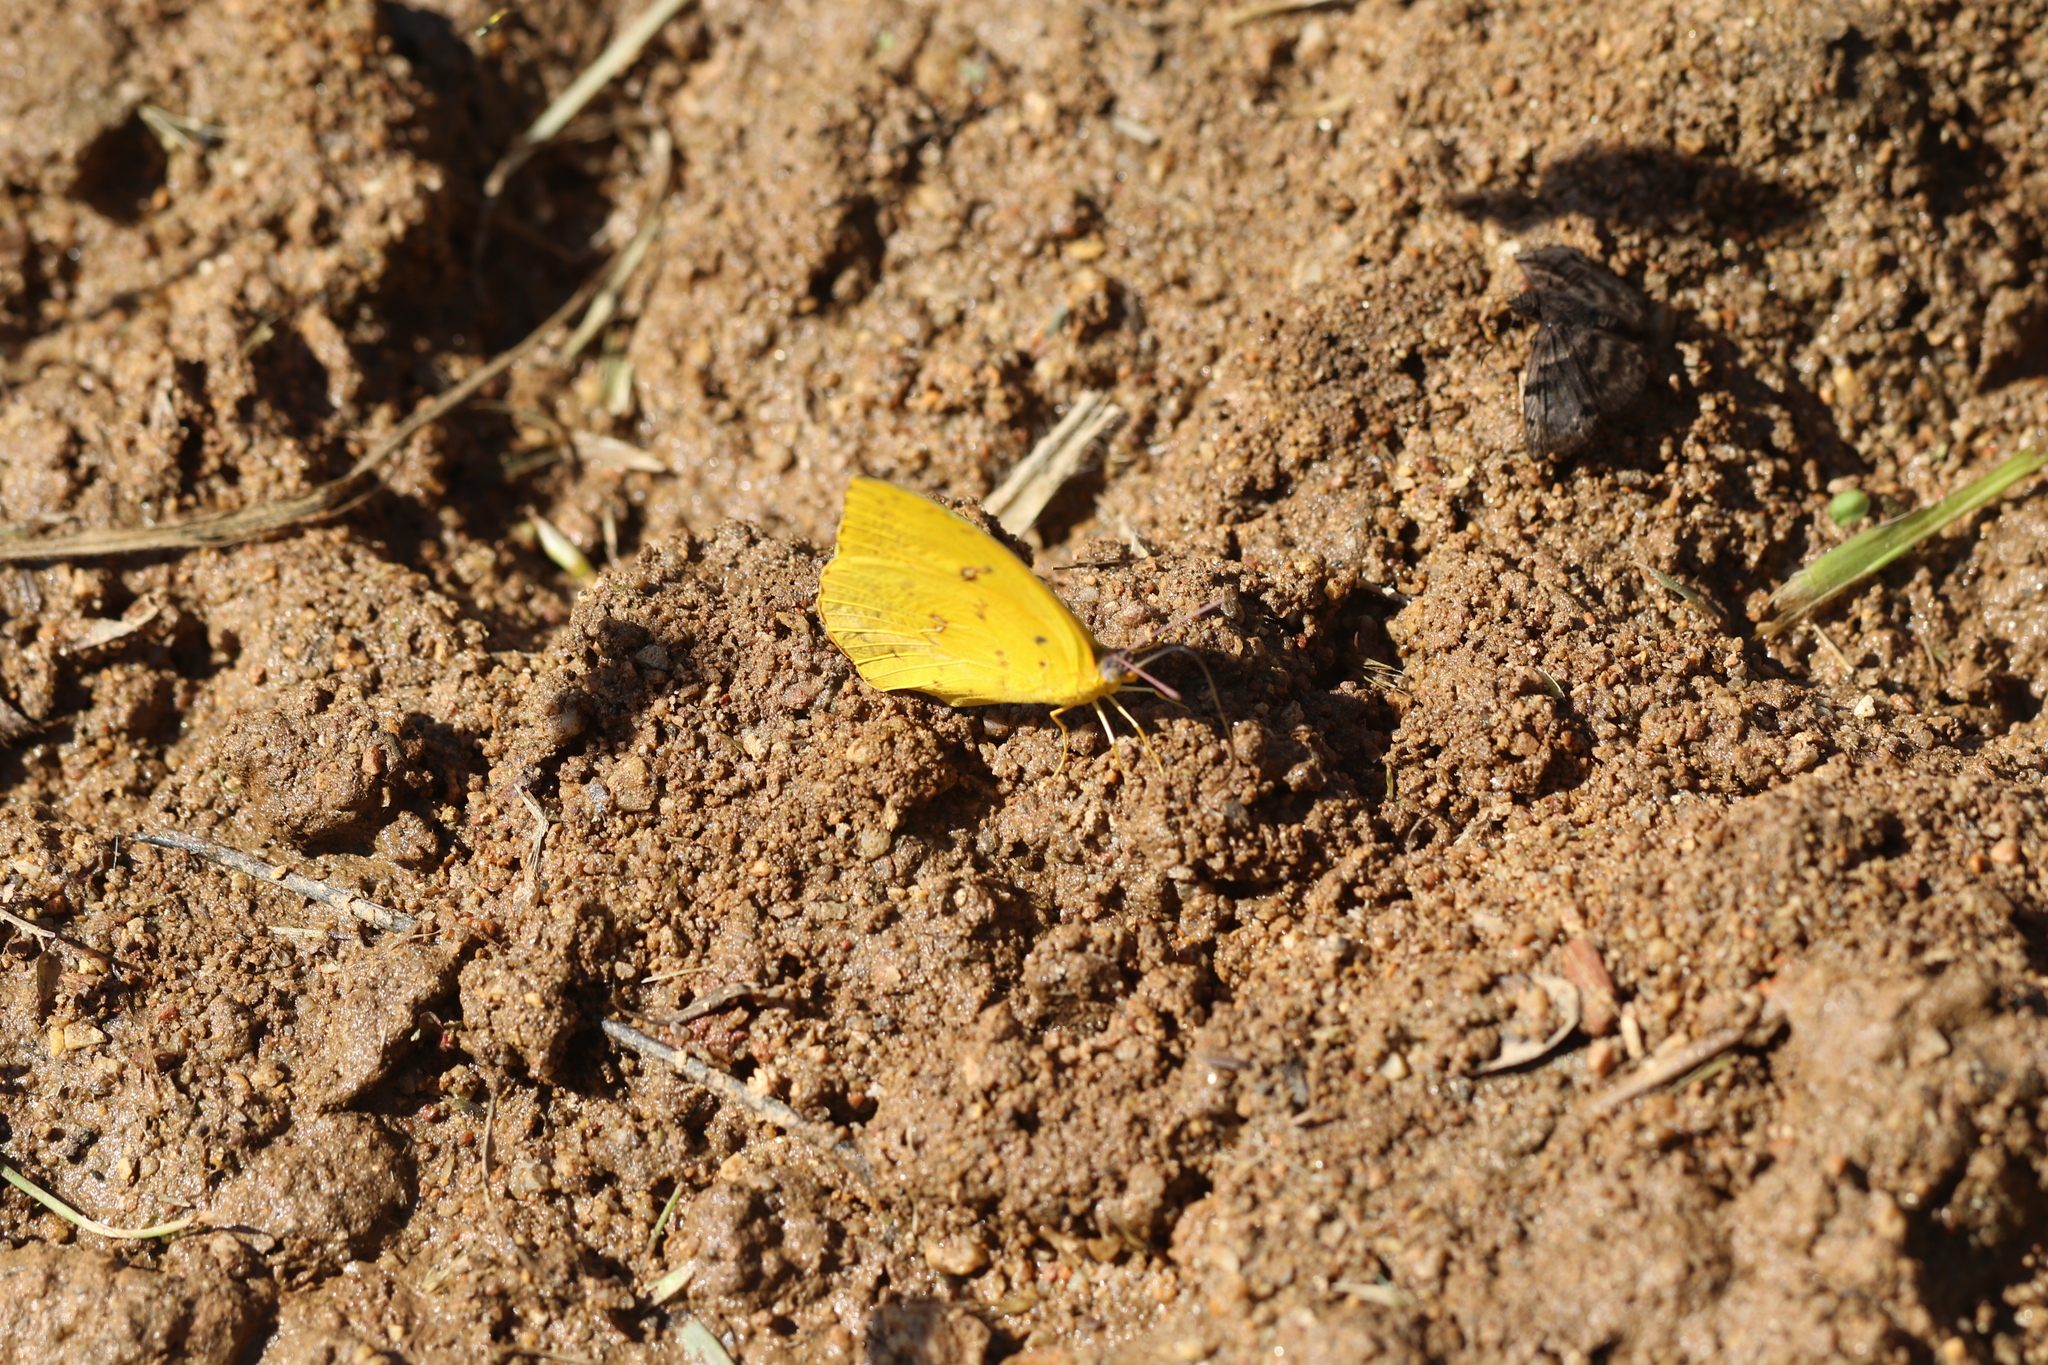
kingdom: Animalia
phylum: Arthropoda
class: Insecta
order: Lepidoptera
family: Pieridae
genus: Phoebis
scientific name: Phoebis philea
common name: Orange-barred giant sulphur
